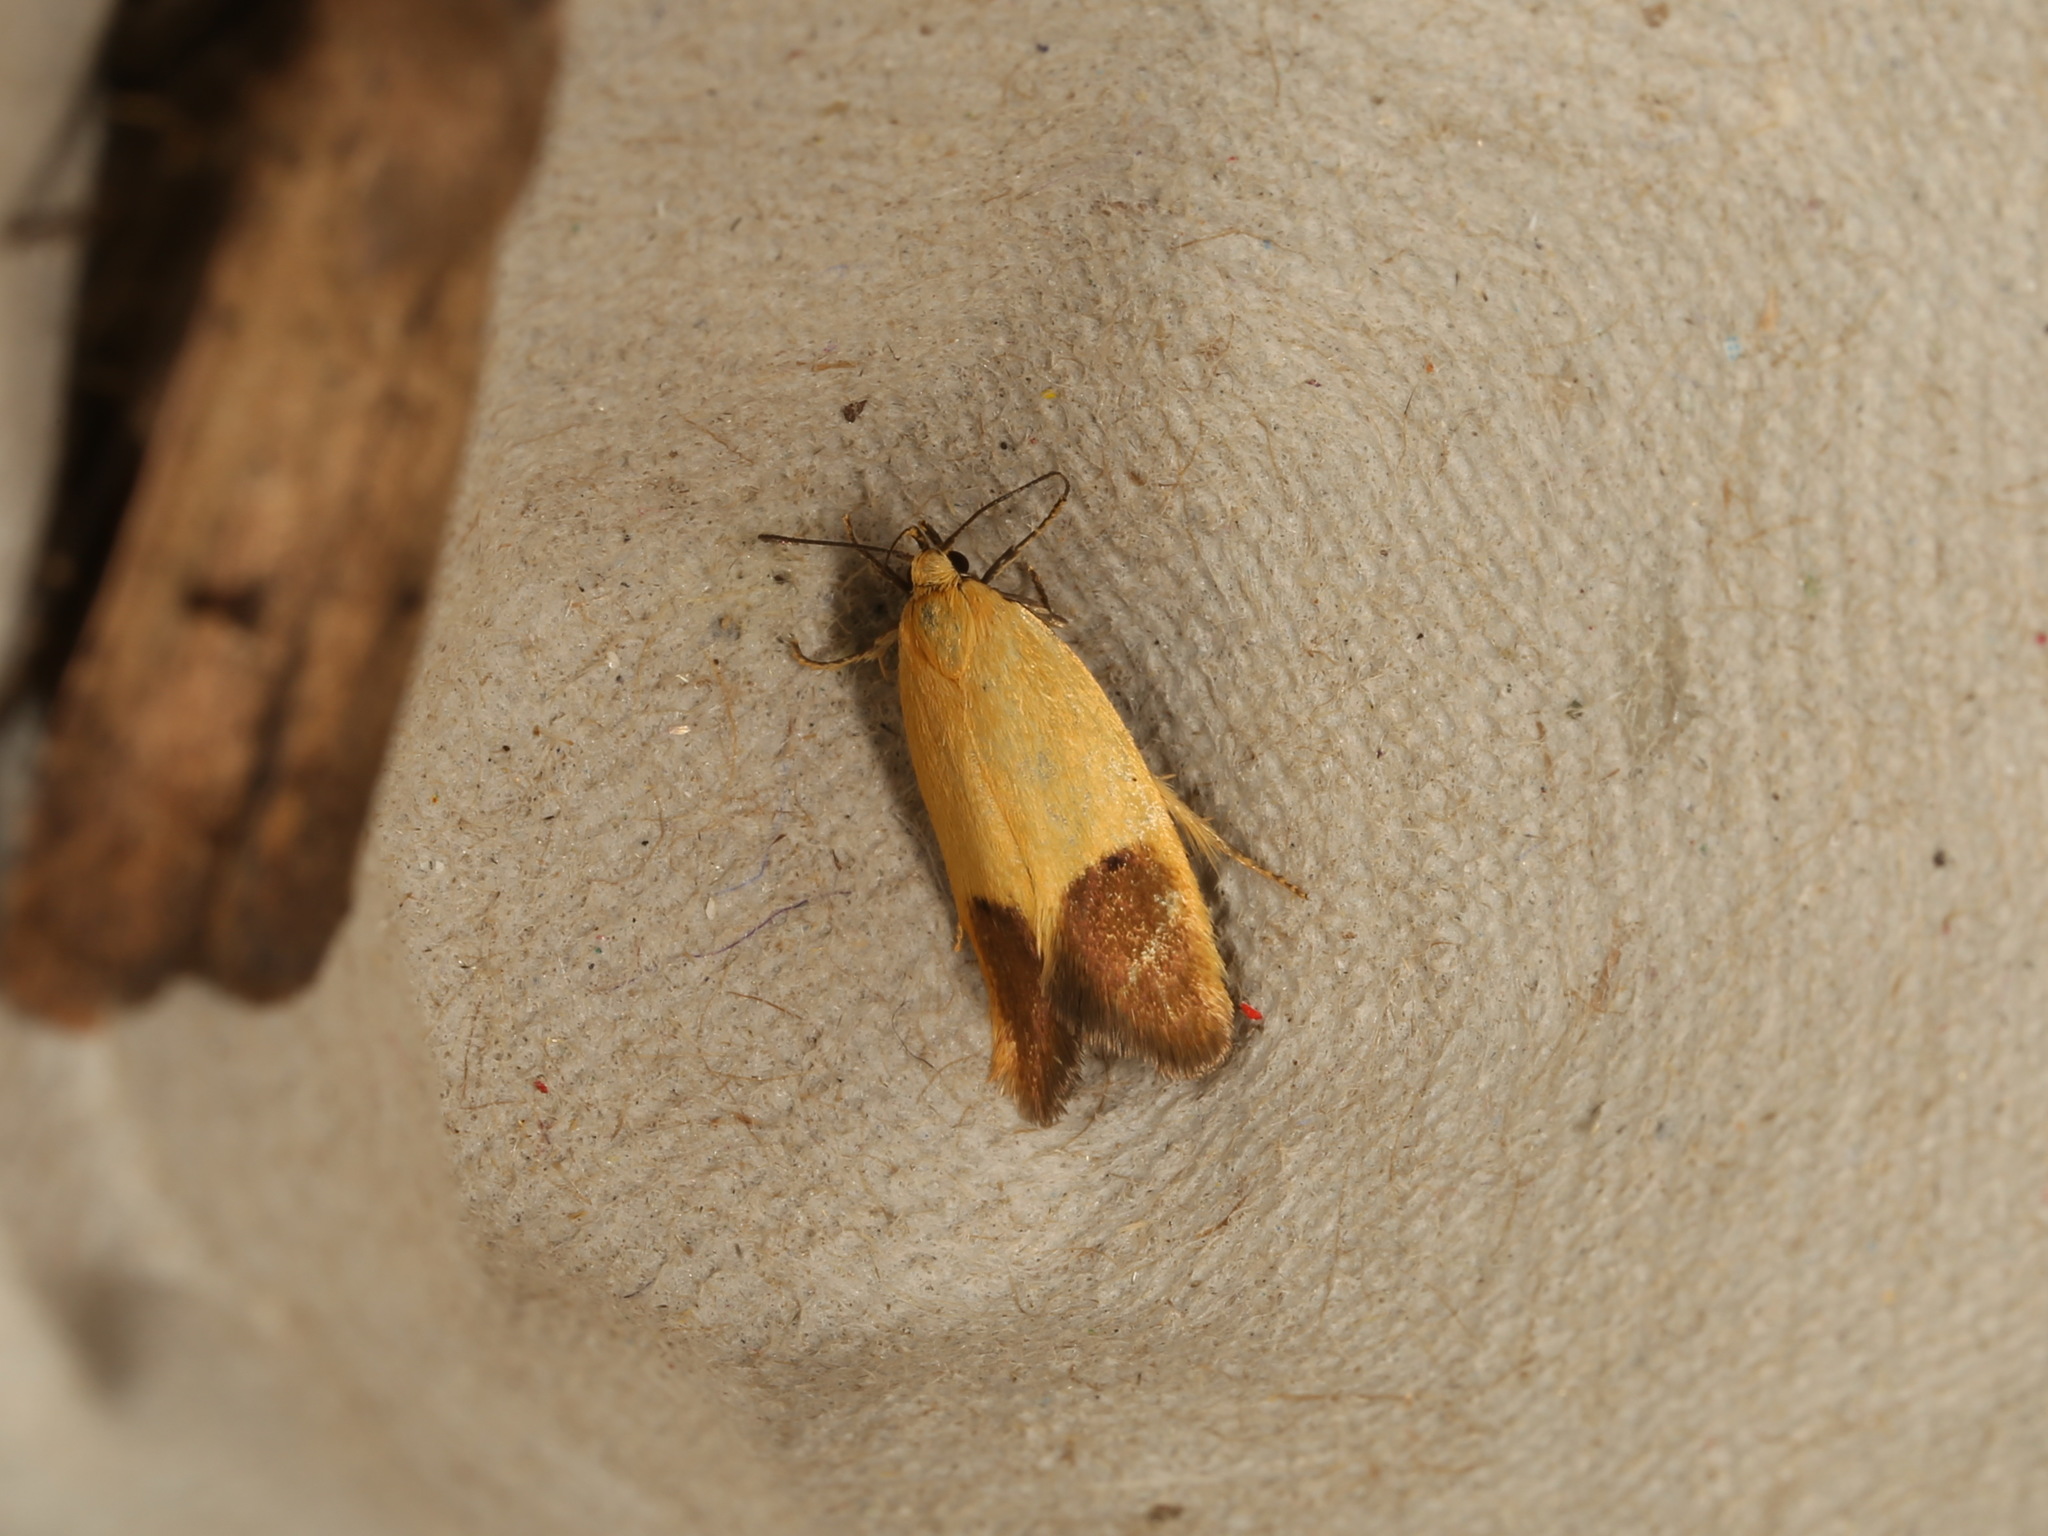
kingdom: Animalia
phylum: Arthropoda
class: Insecta
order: Lepidoptera
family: Oecophoridae
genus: Merocroca
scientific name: Merocroca automima
